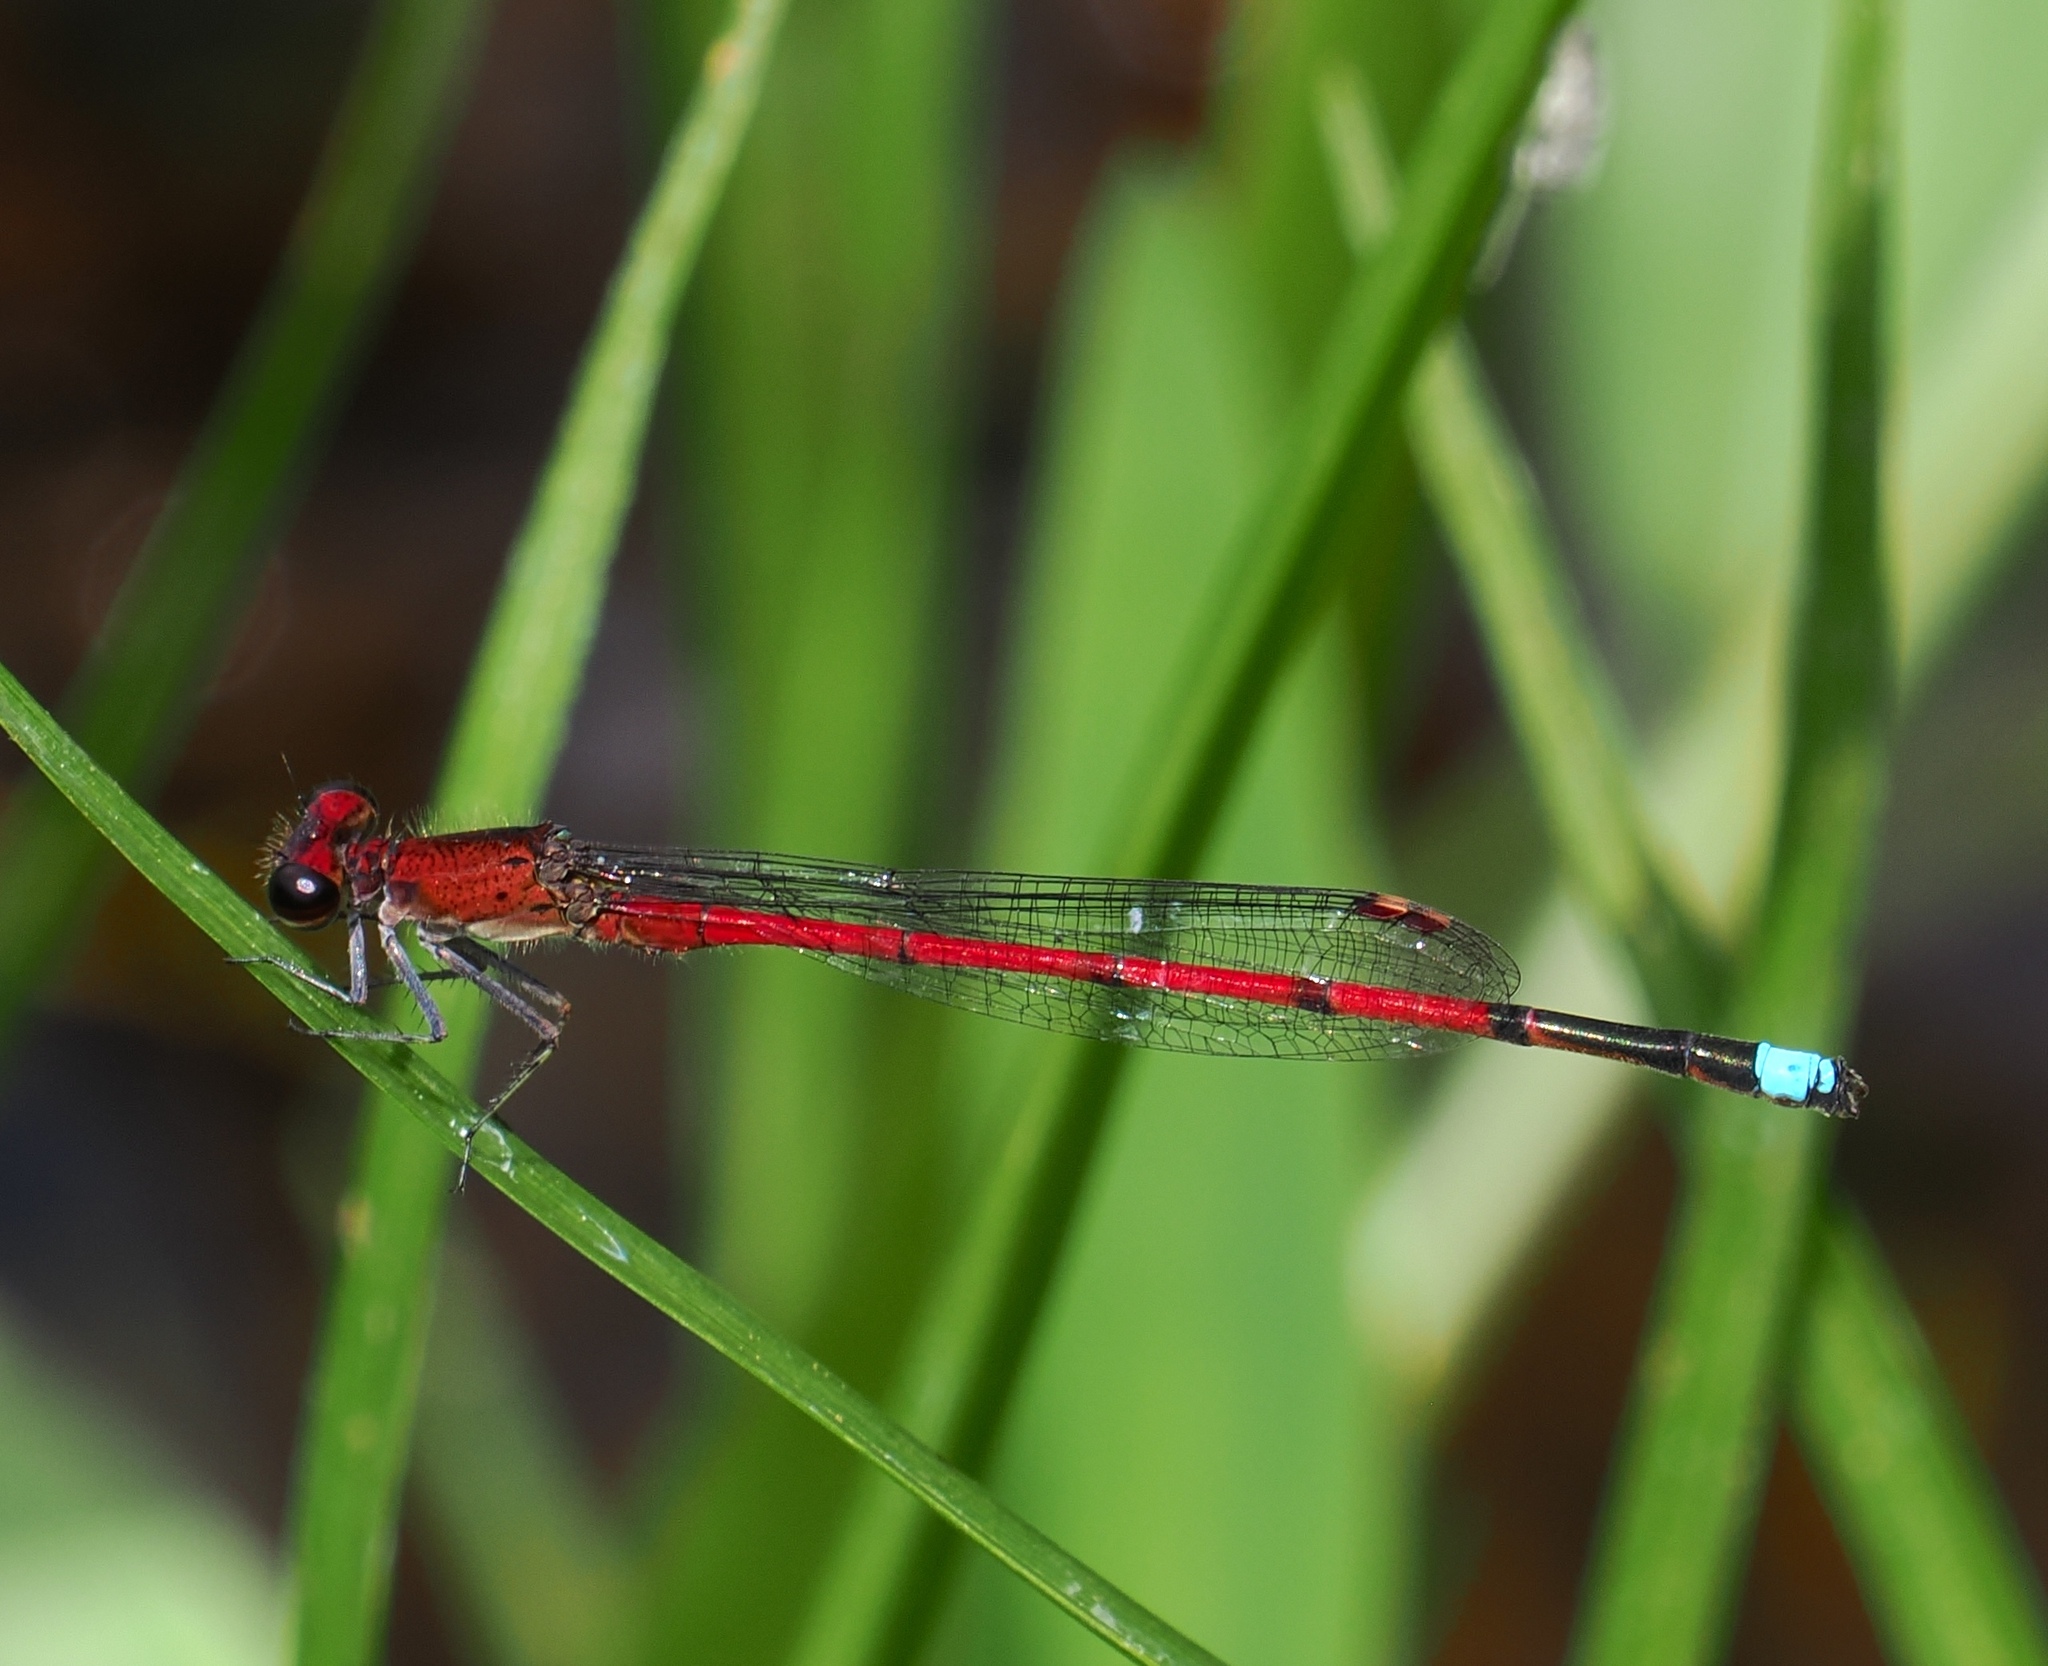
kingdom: Animalia
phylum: Arthropoda
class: Insecta
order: Odonata
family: Coenagrionidae
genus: Oxyagrion
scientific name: Oxyagrion terminale
